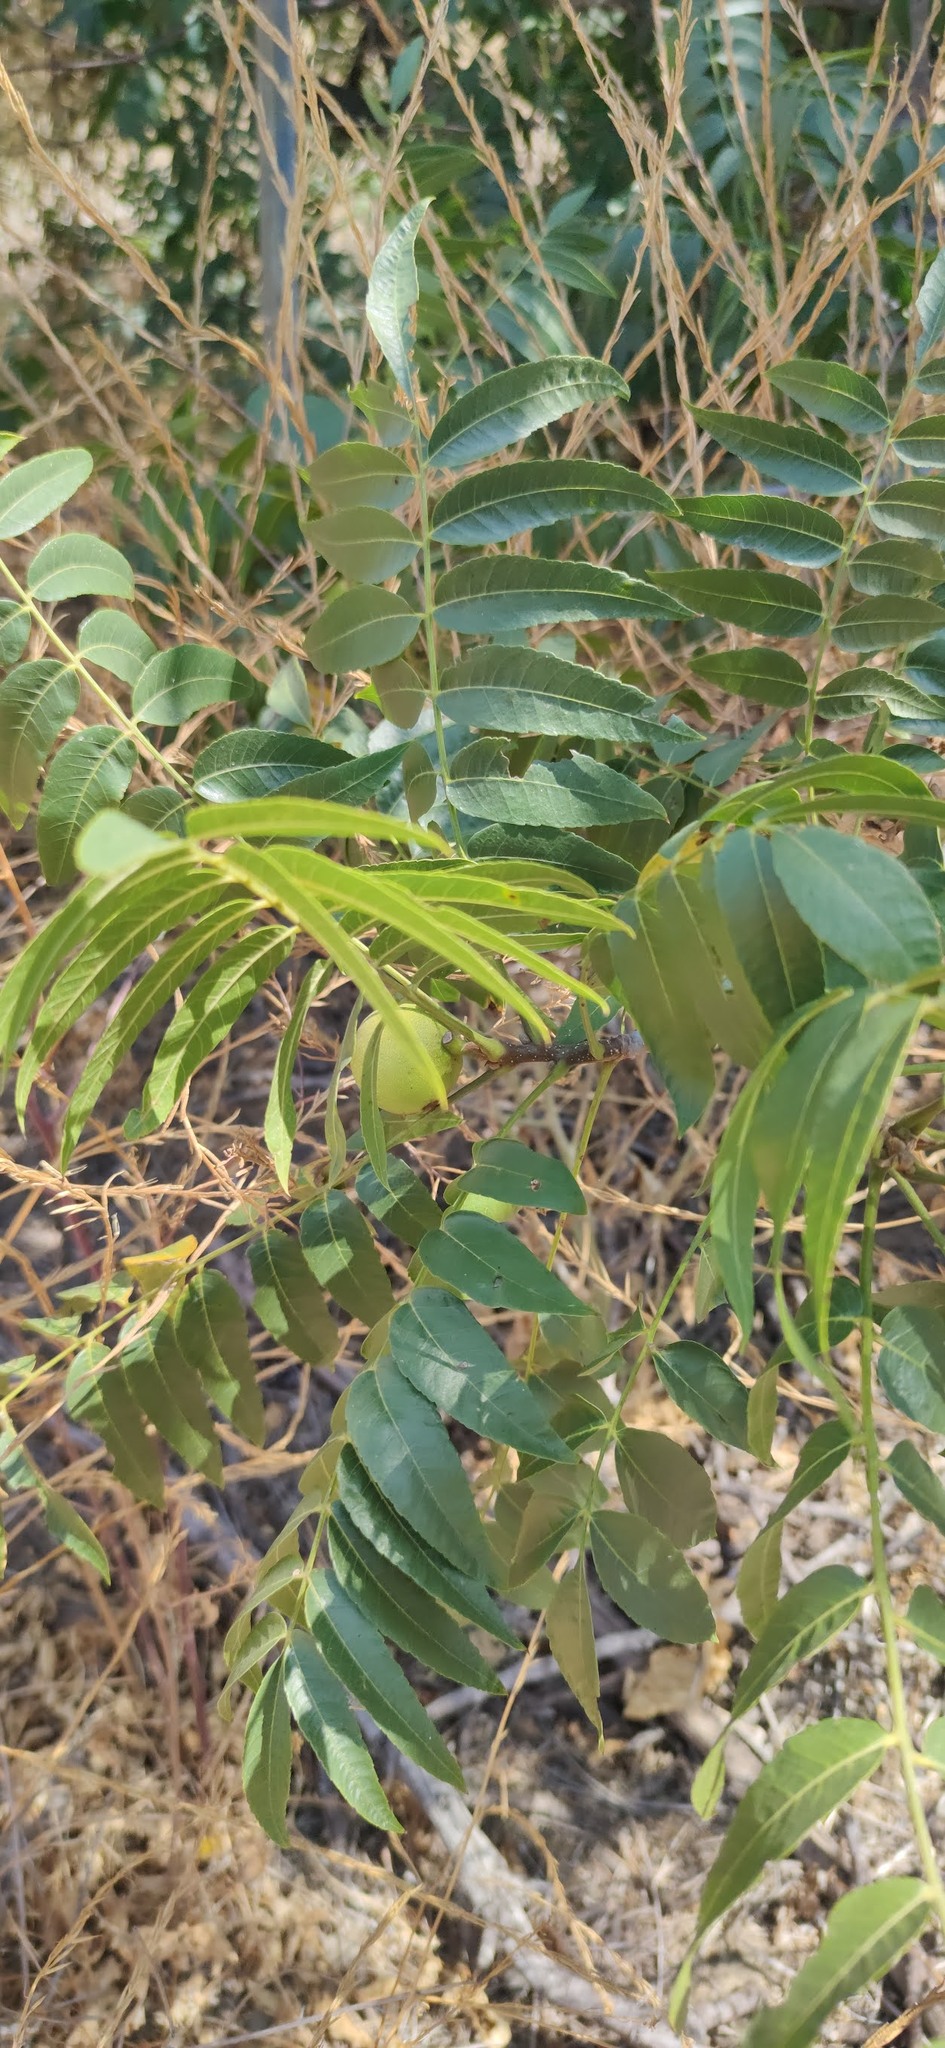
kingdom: Plantae
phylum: Tracheophyta
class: Magnoliopsida
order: Fagales
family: Juglandaceae
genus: Juglans
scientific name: Juglans californica
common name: Southern california black walnut
